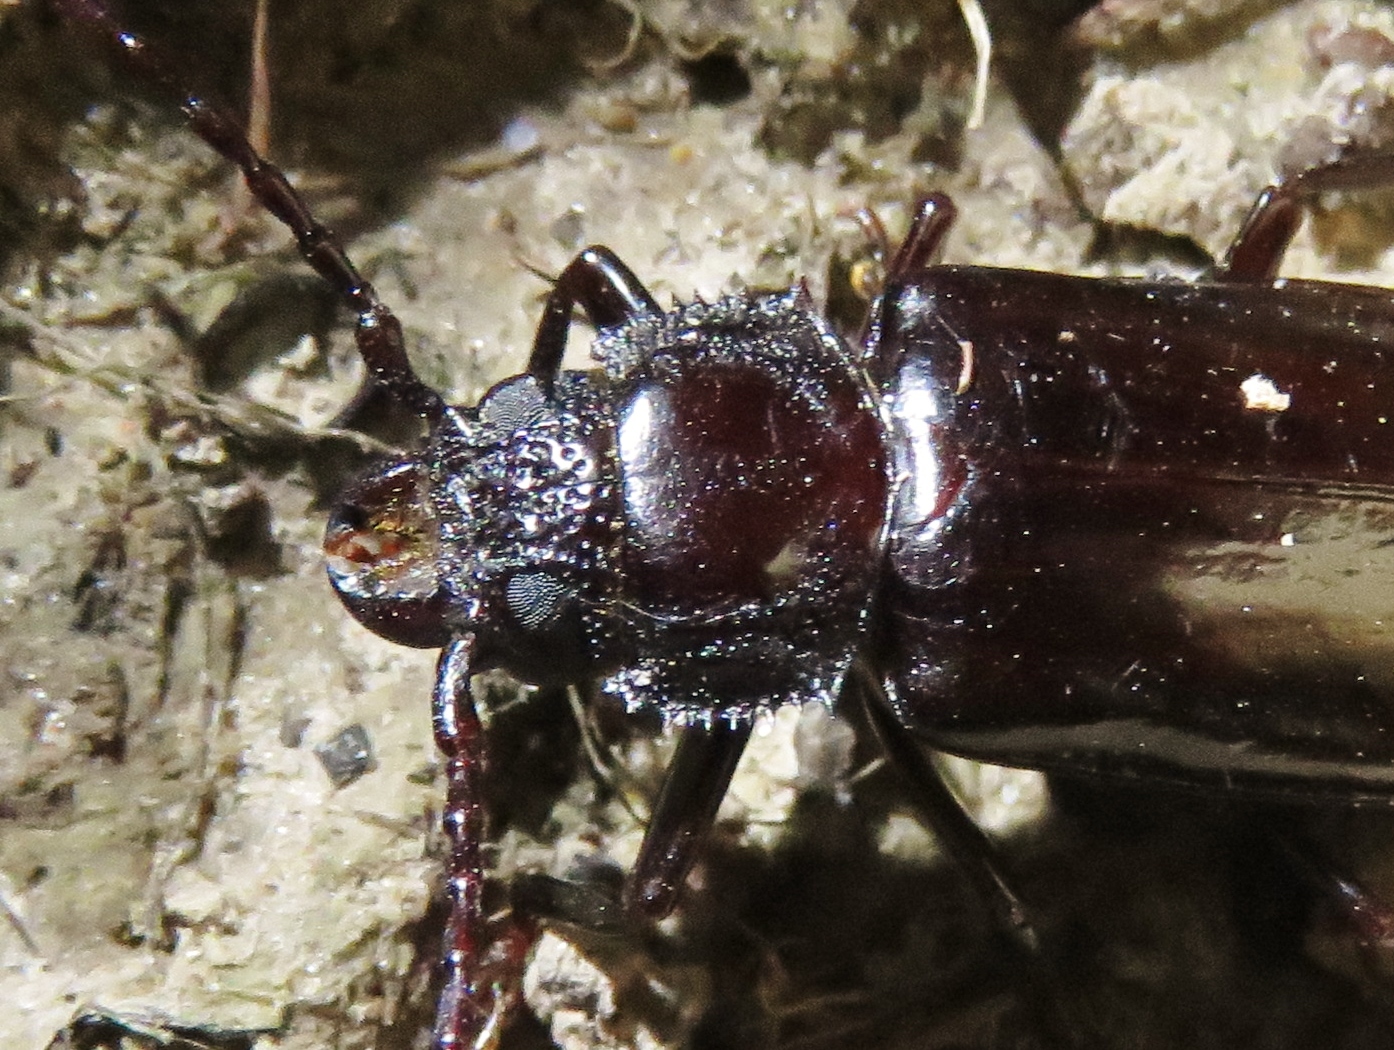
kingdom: Animalia
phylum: Arthropoda
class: Insecta
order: Coleoptera
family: Cerambycidae
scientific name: Cerambycidae
